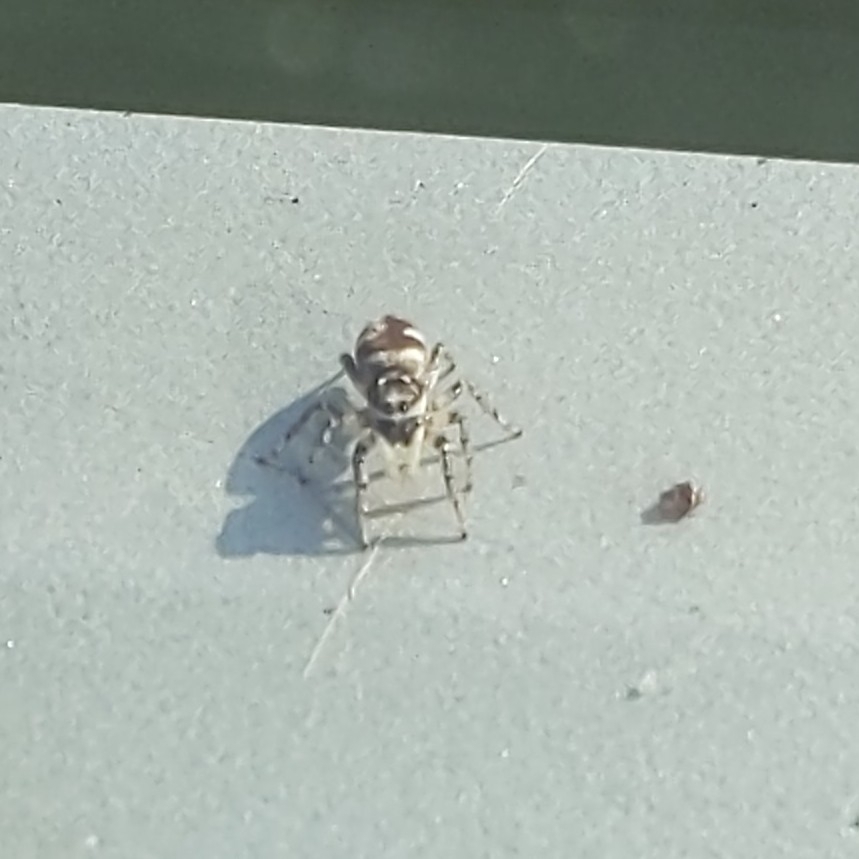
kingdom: Animalia
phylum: Arthropoda
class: Arachnida
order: Araneae
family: Salticidae
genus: Salticus
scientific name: Salticus scenicus
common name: Zebra jumper
